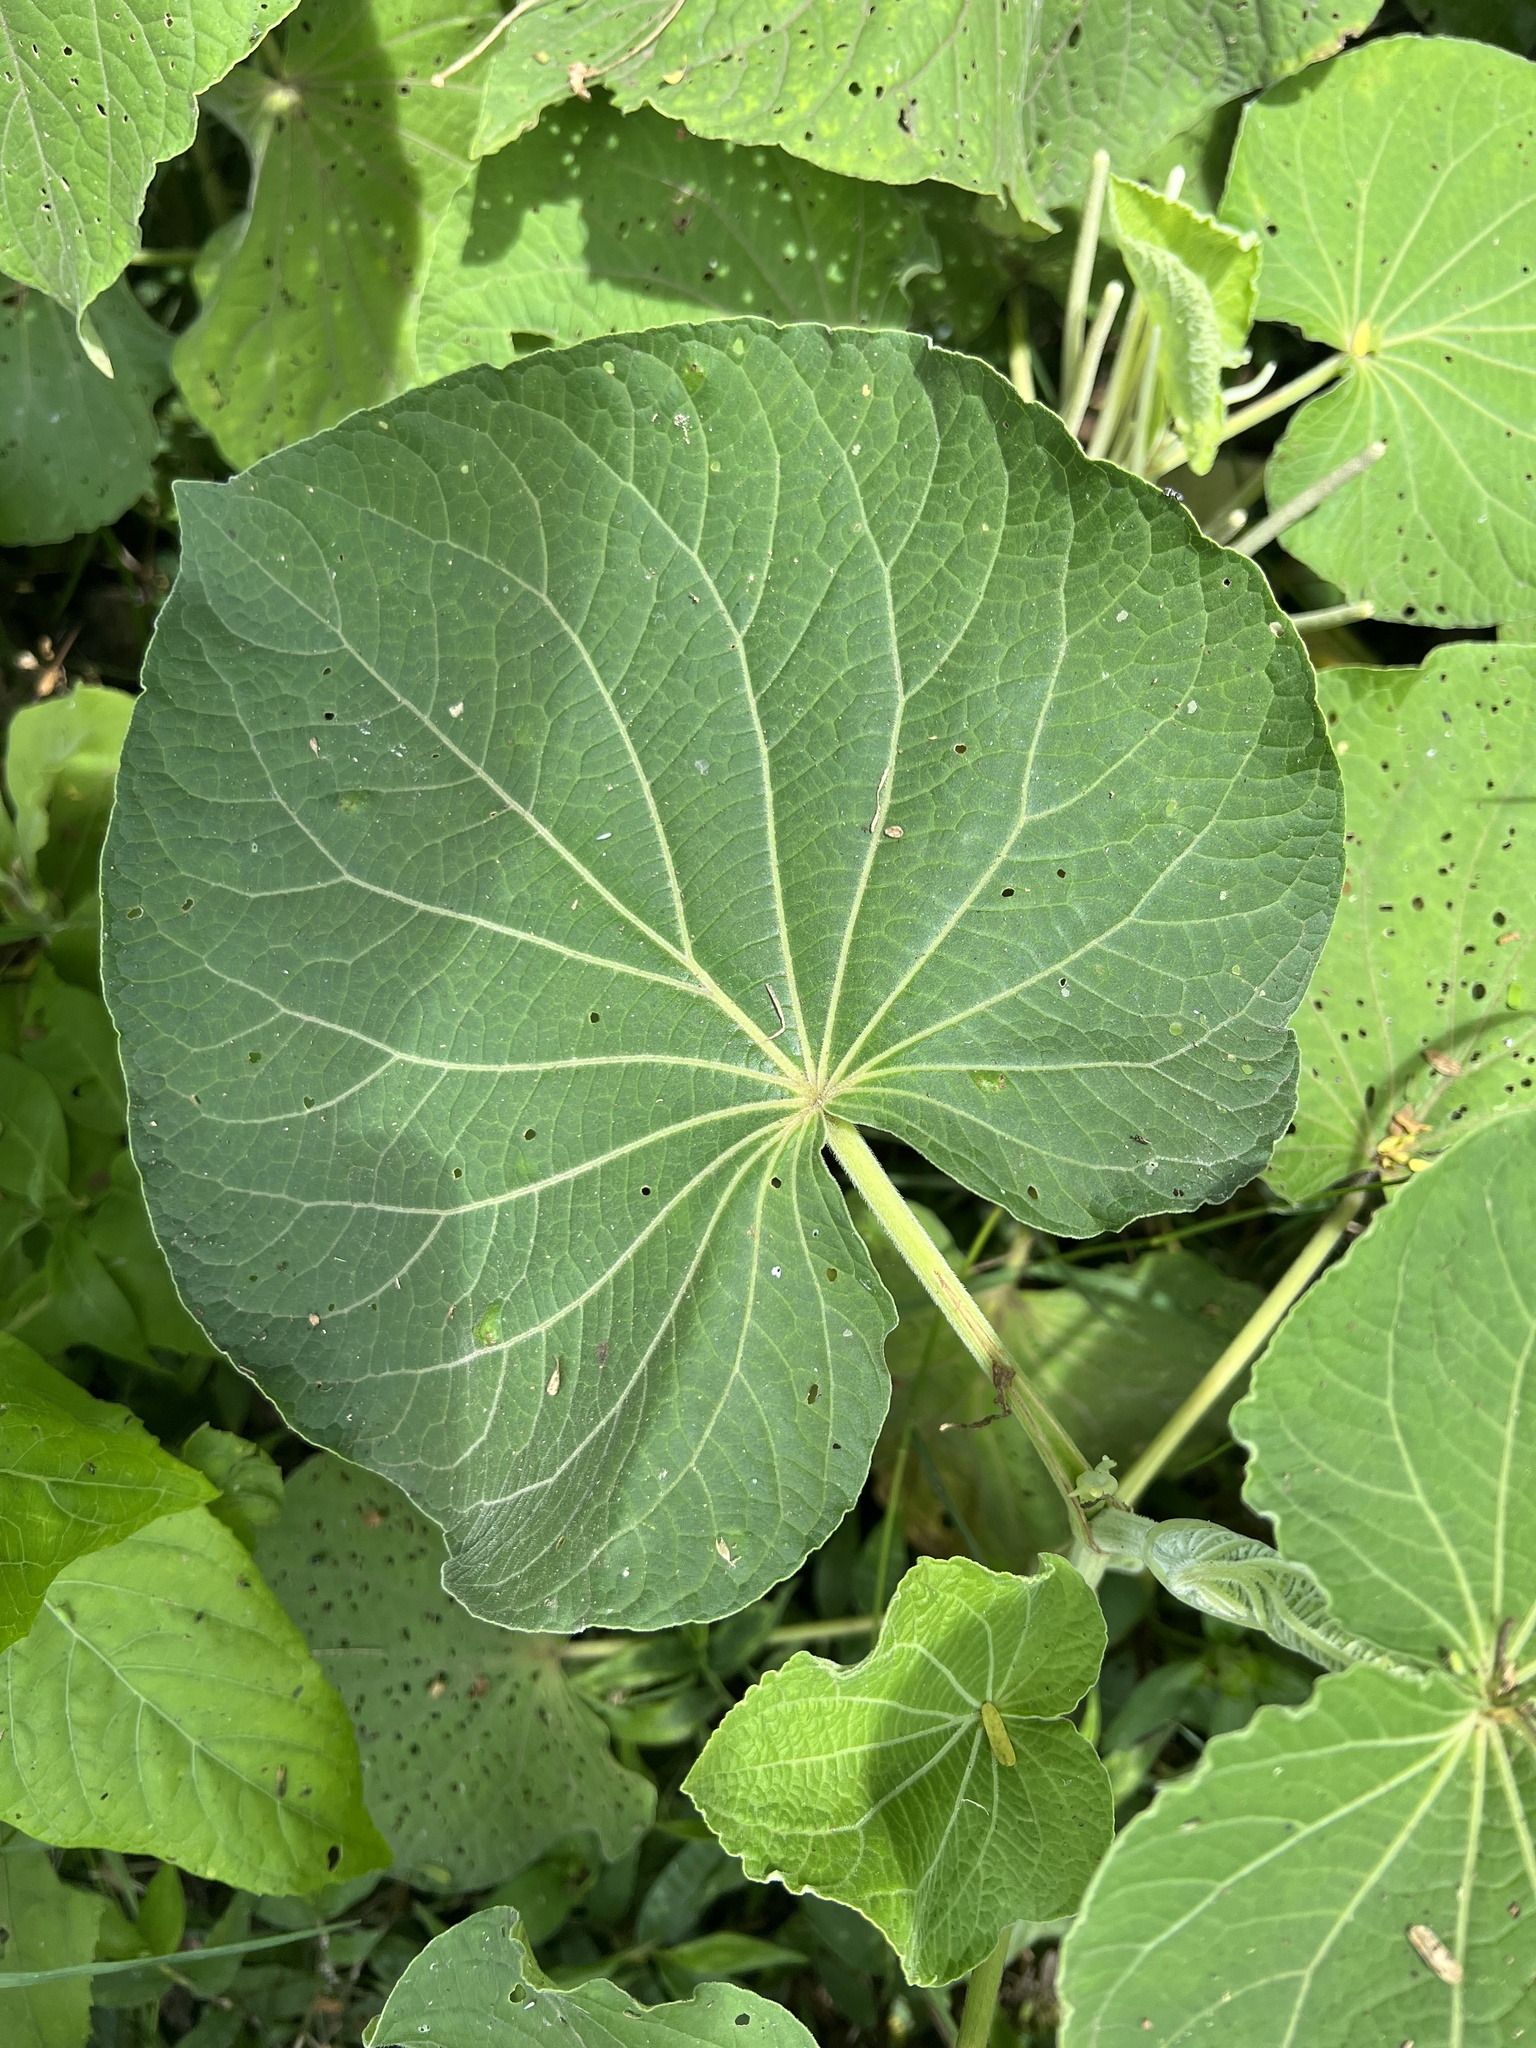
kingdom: Plantae
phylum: Tracheophyta
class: Magnoliopsida
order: Piperales
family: Piperaceae
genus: Piper
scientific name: Piper umbellatum
